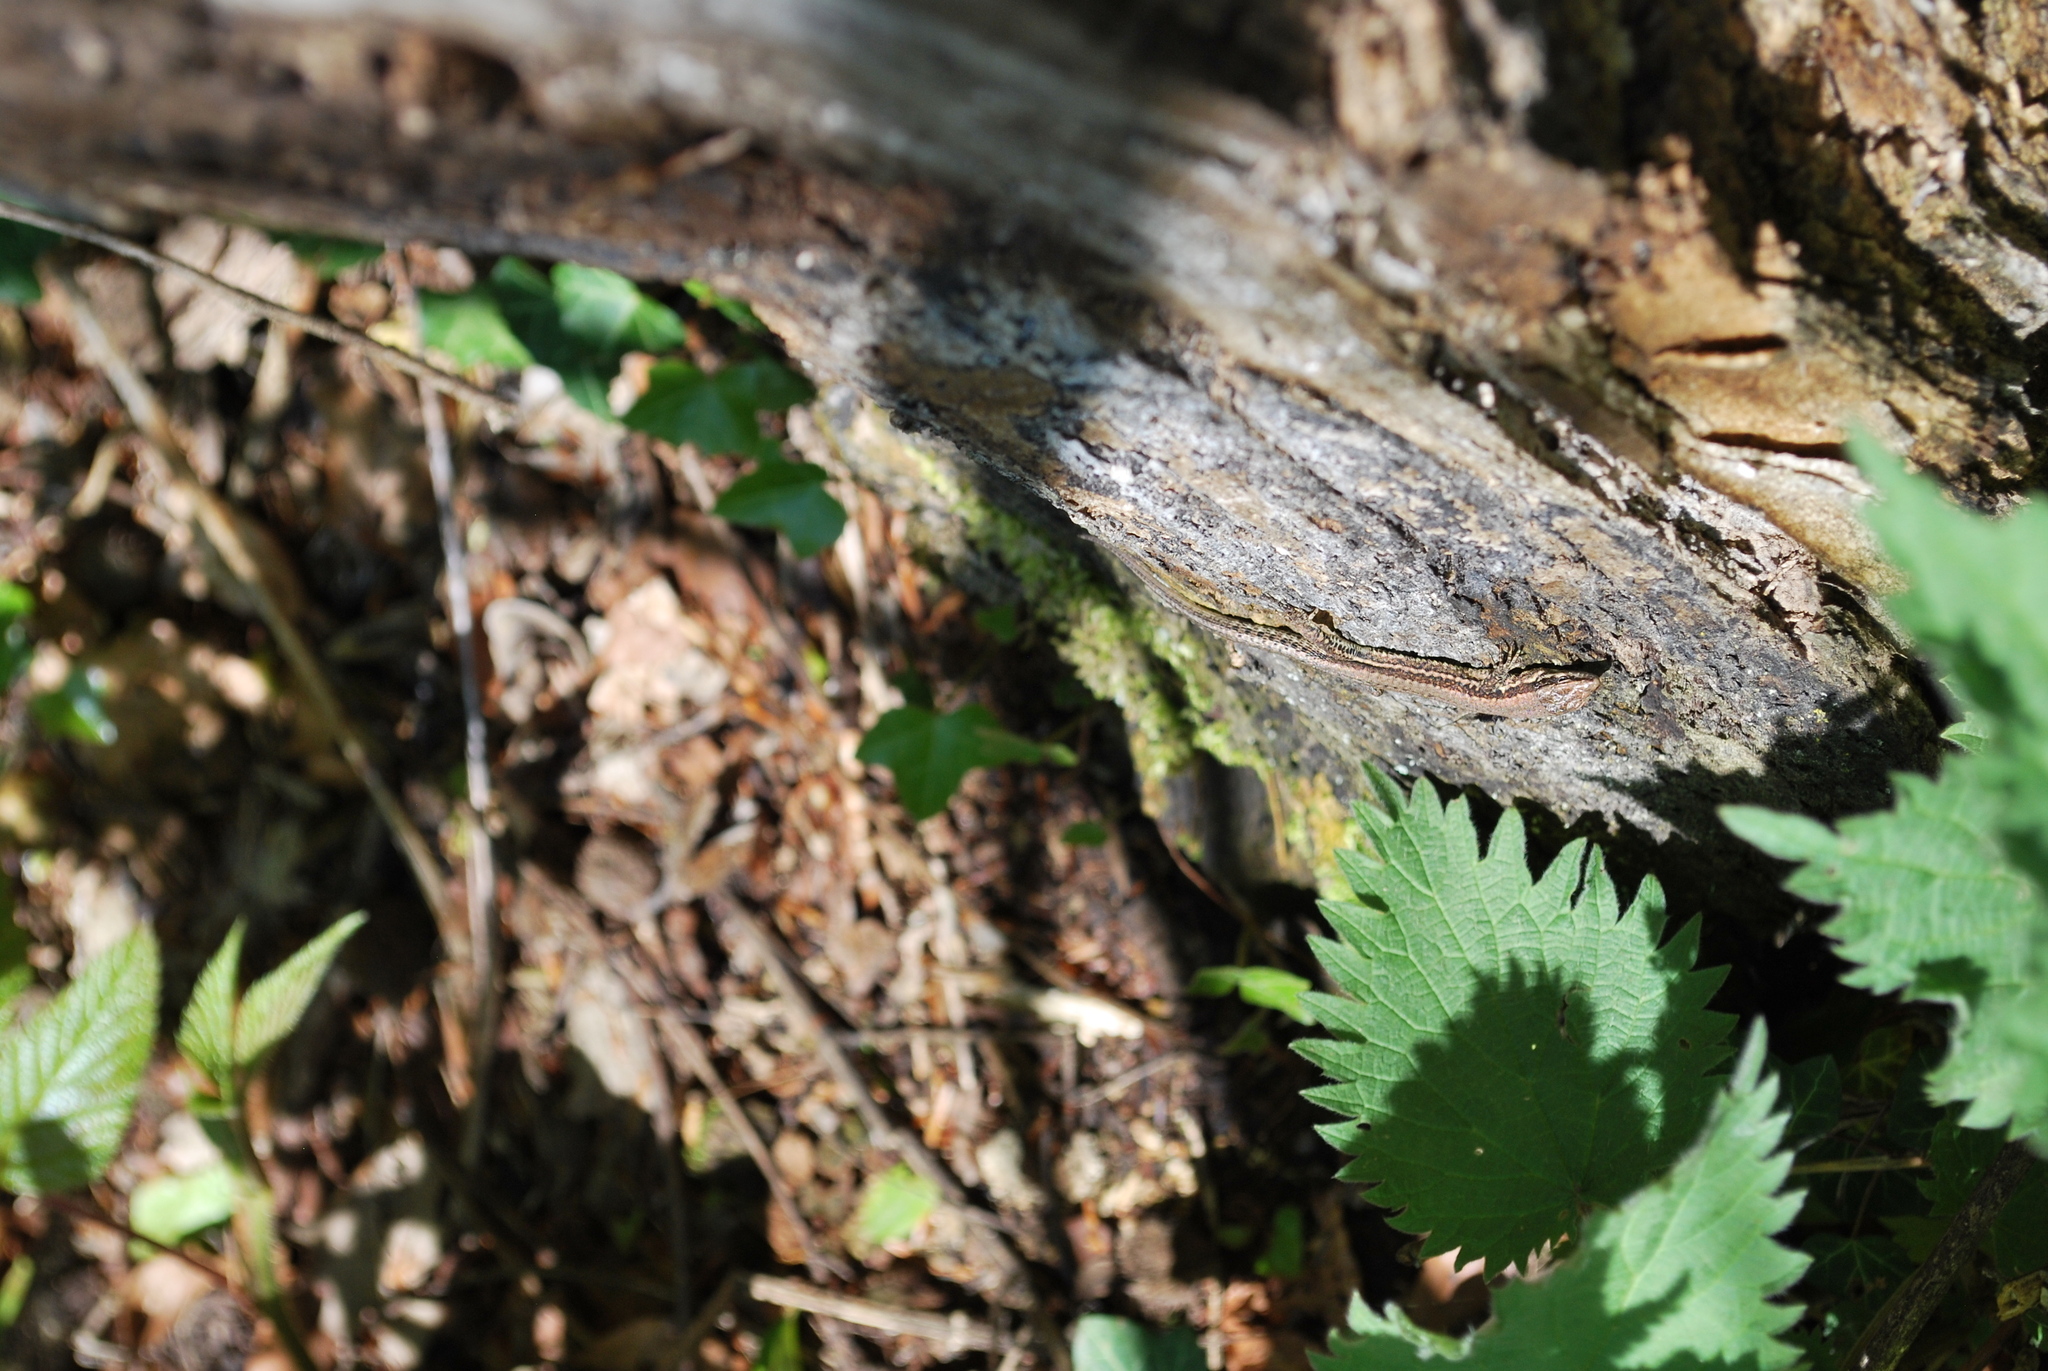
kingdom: Animalia
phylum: Chordata
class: Squamata
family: Lacertidae
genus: Podarcis
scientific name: Podarcis muralis
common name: Common wall lizard
